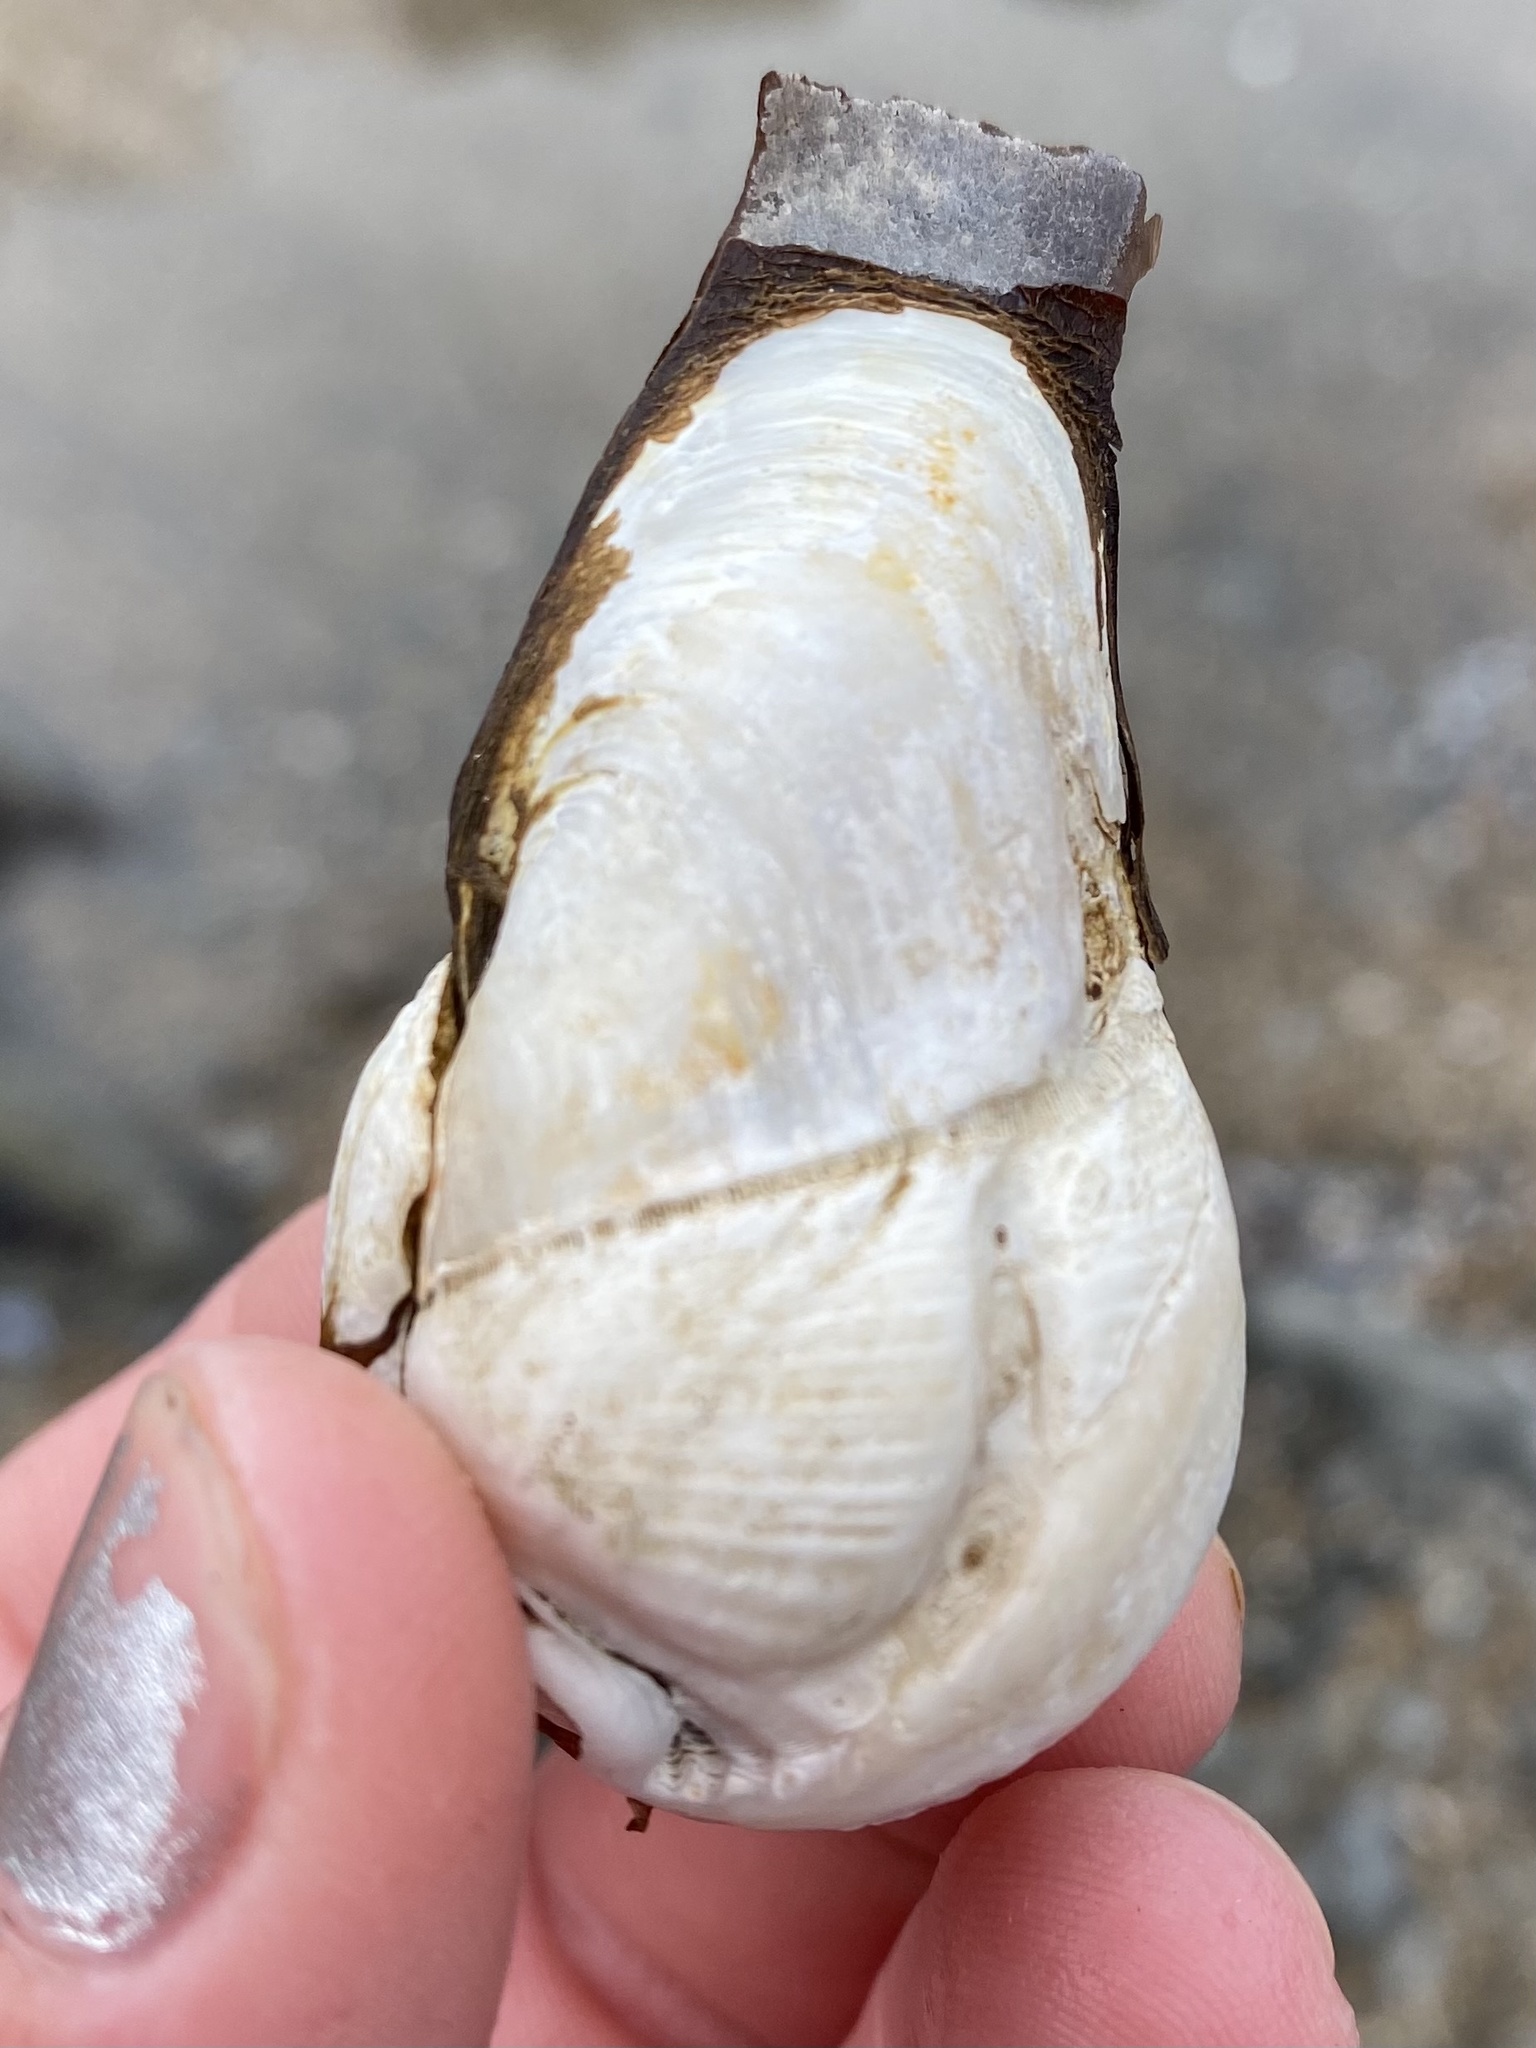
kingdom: Animalia
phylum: Mollusca
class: Bivalvia
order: Myida
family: Pholadidae
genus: Penitella
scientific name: Penitella penita
